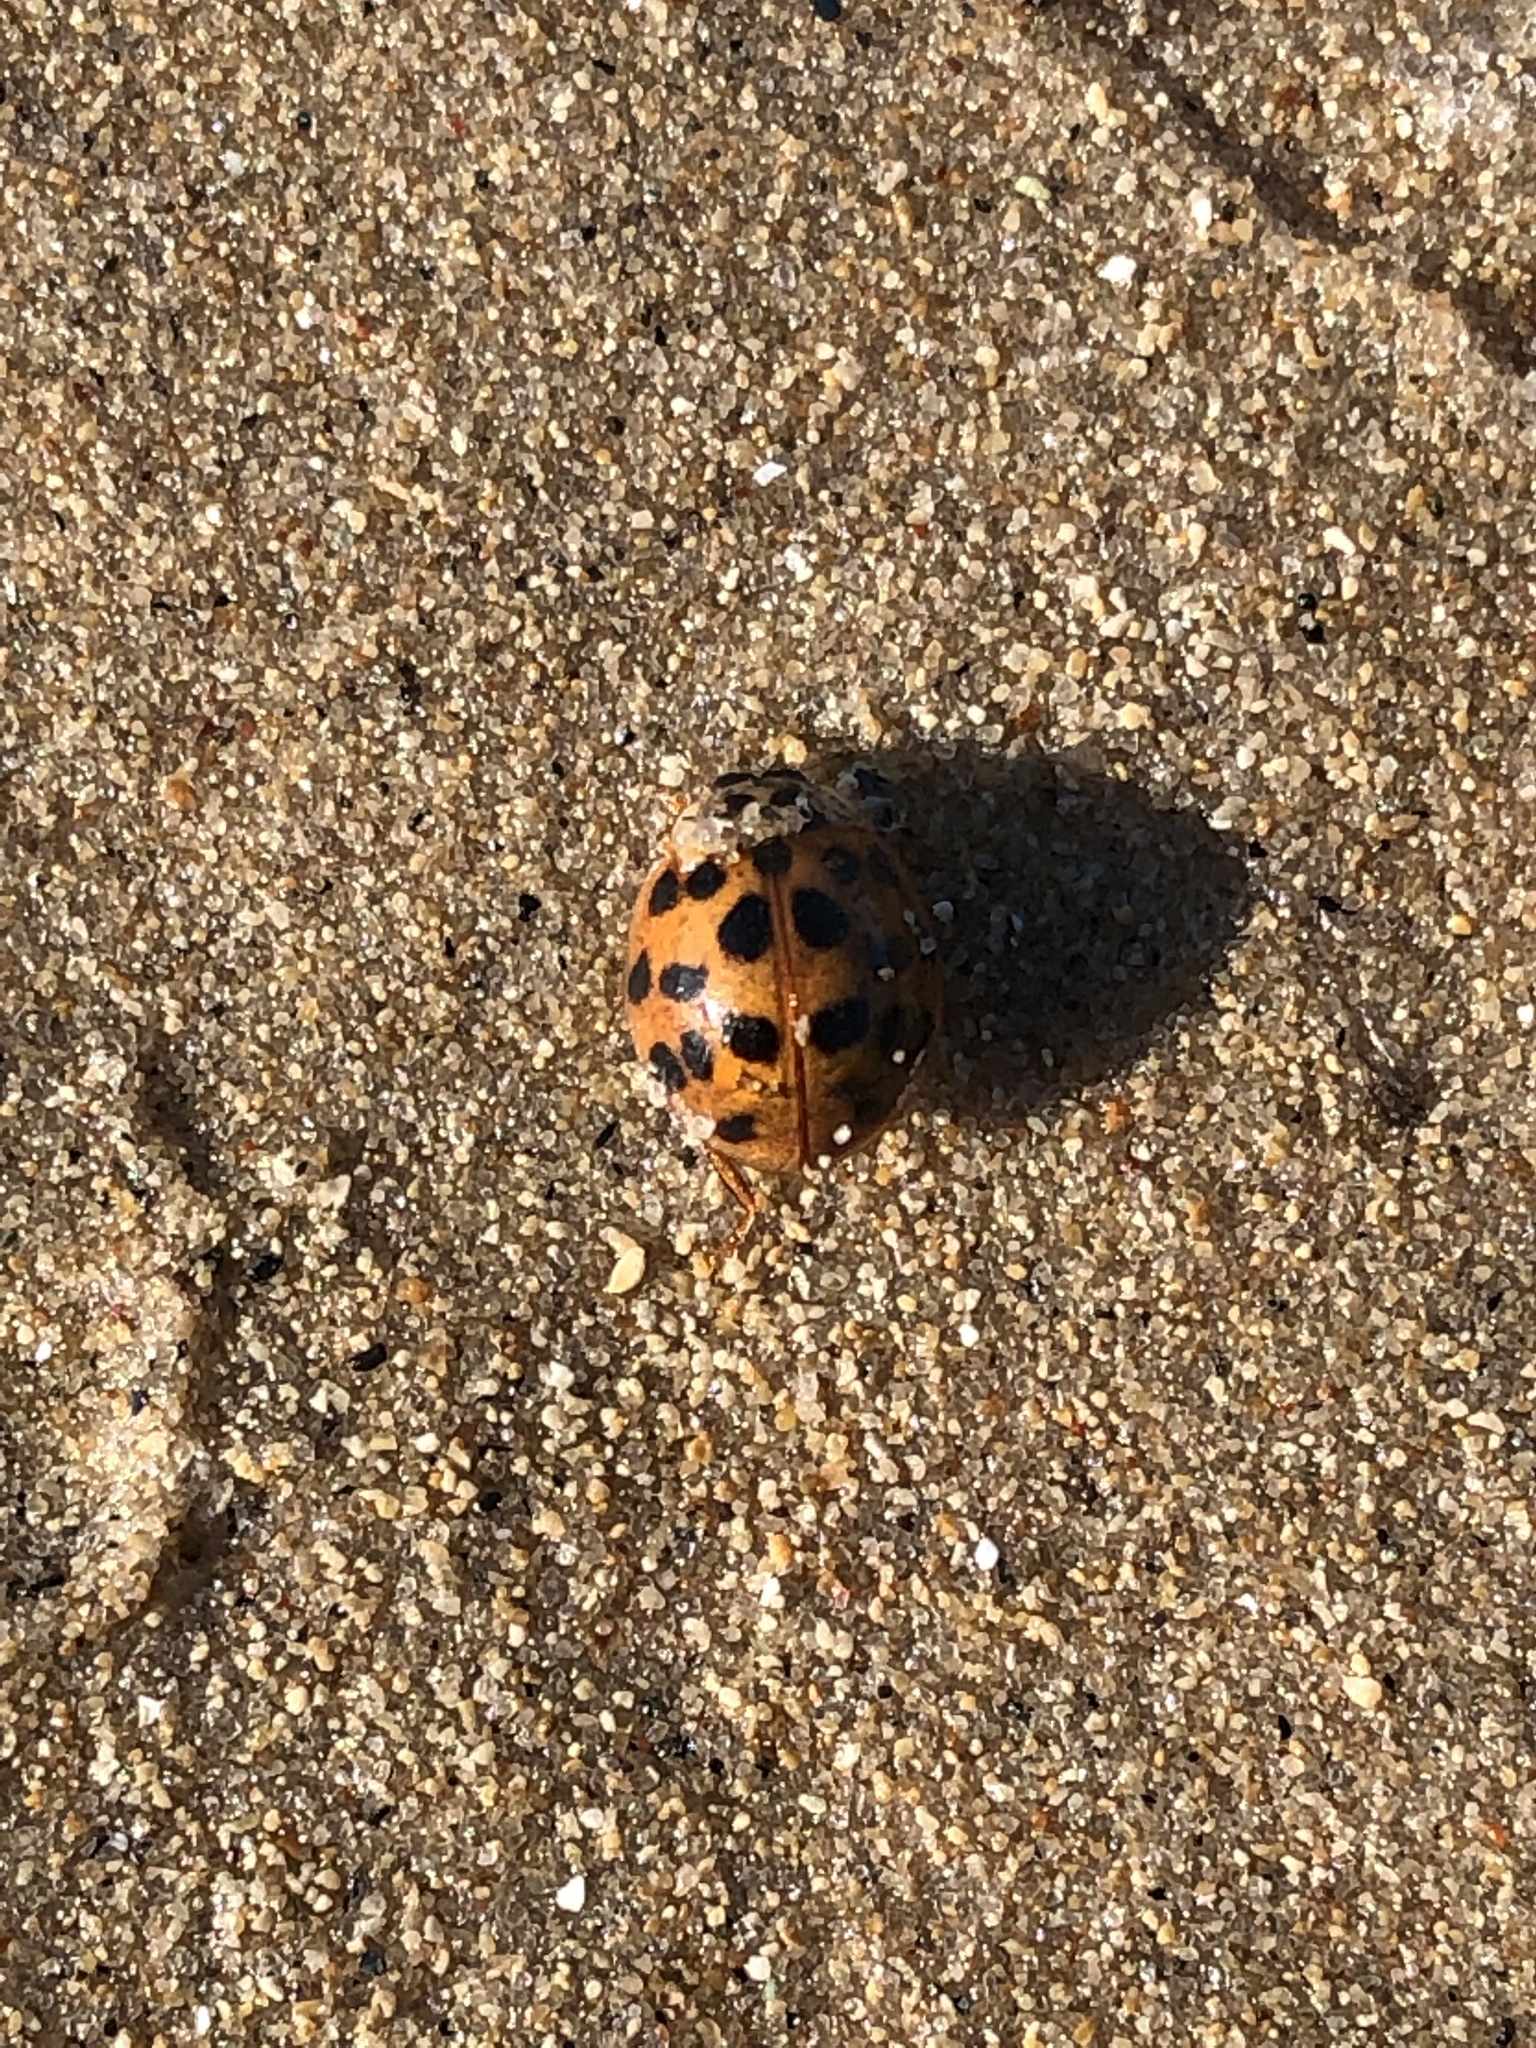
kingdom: Animalia
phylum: Arthropoda
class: Insecta
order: Coleoptera
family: Coccinellidae
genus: Harmonia
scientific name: Harmonia axyridis
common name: Harlequin ladybird
